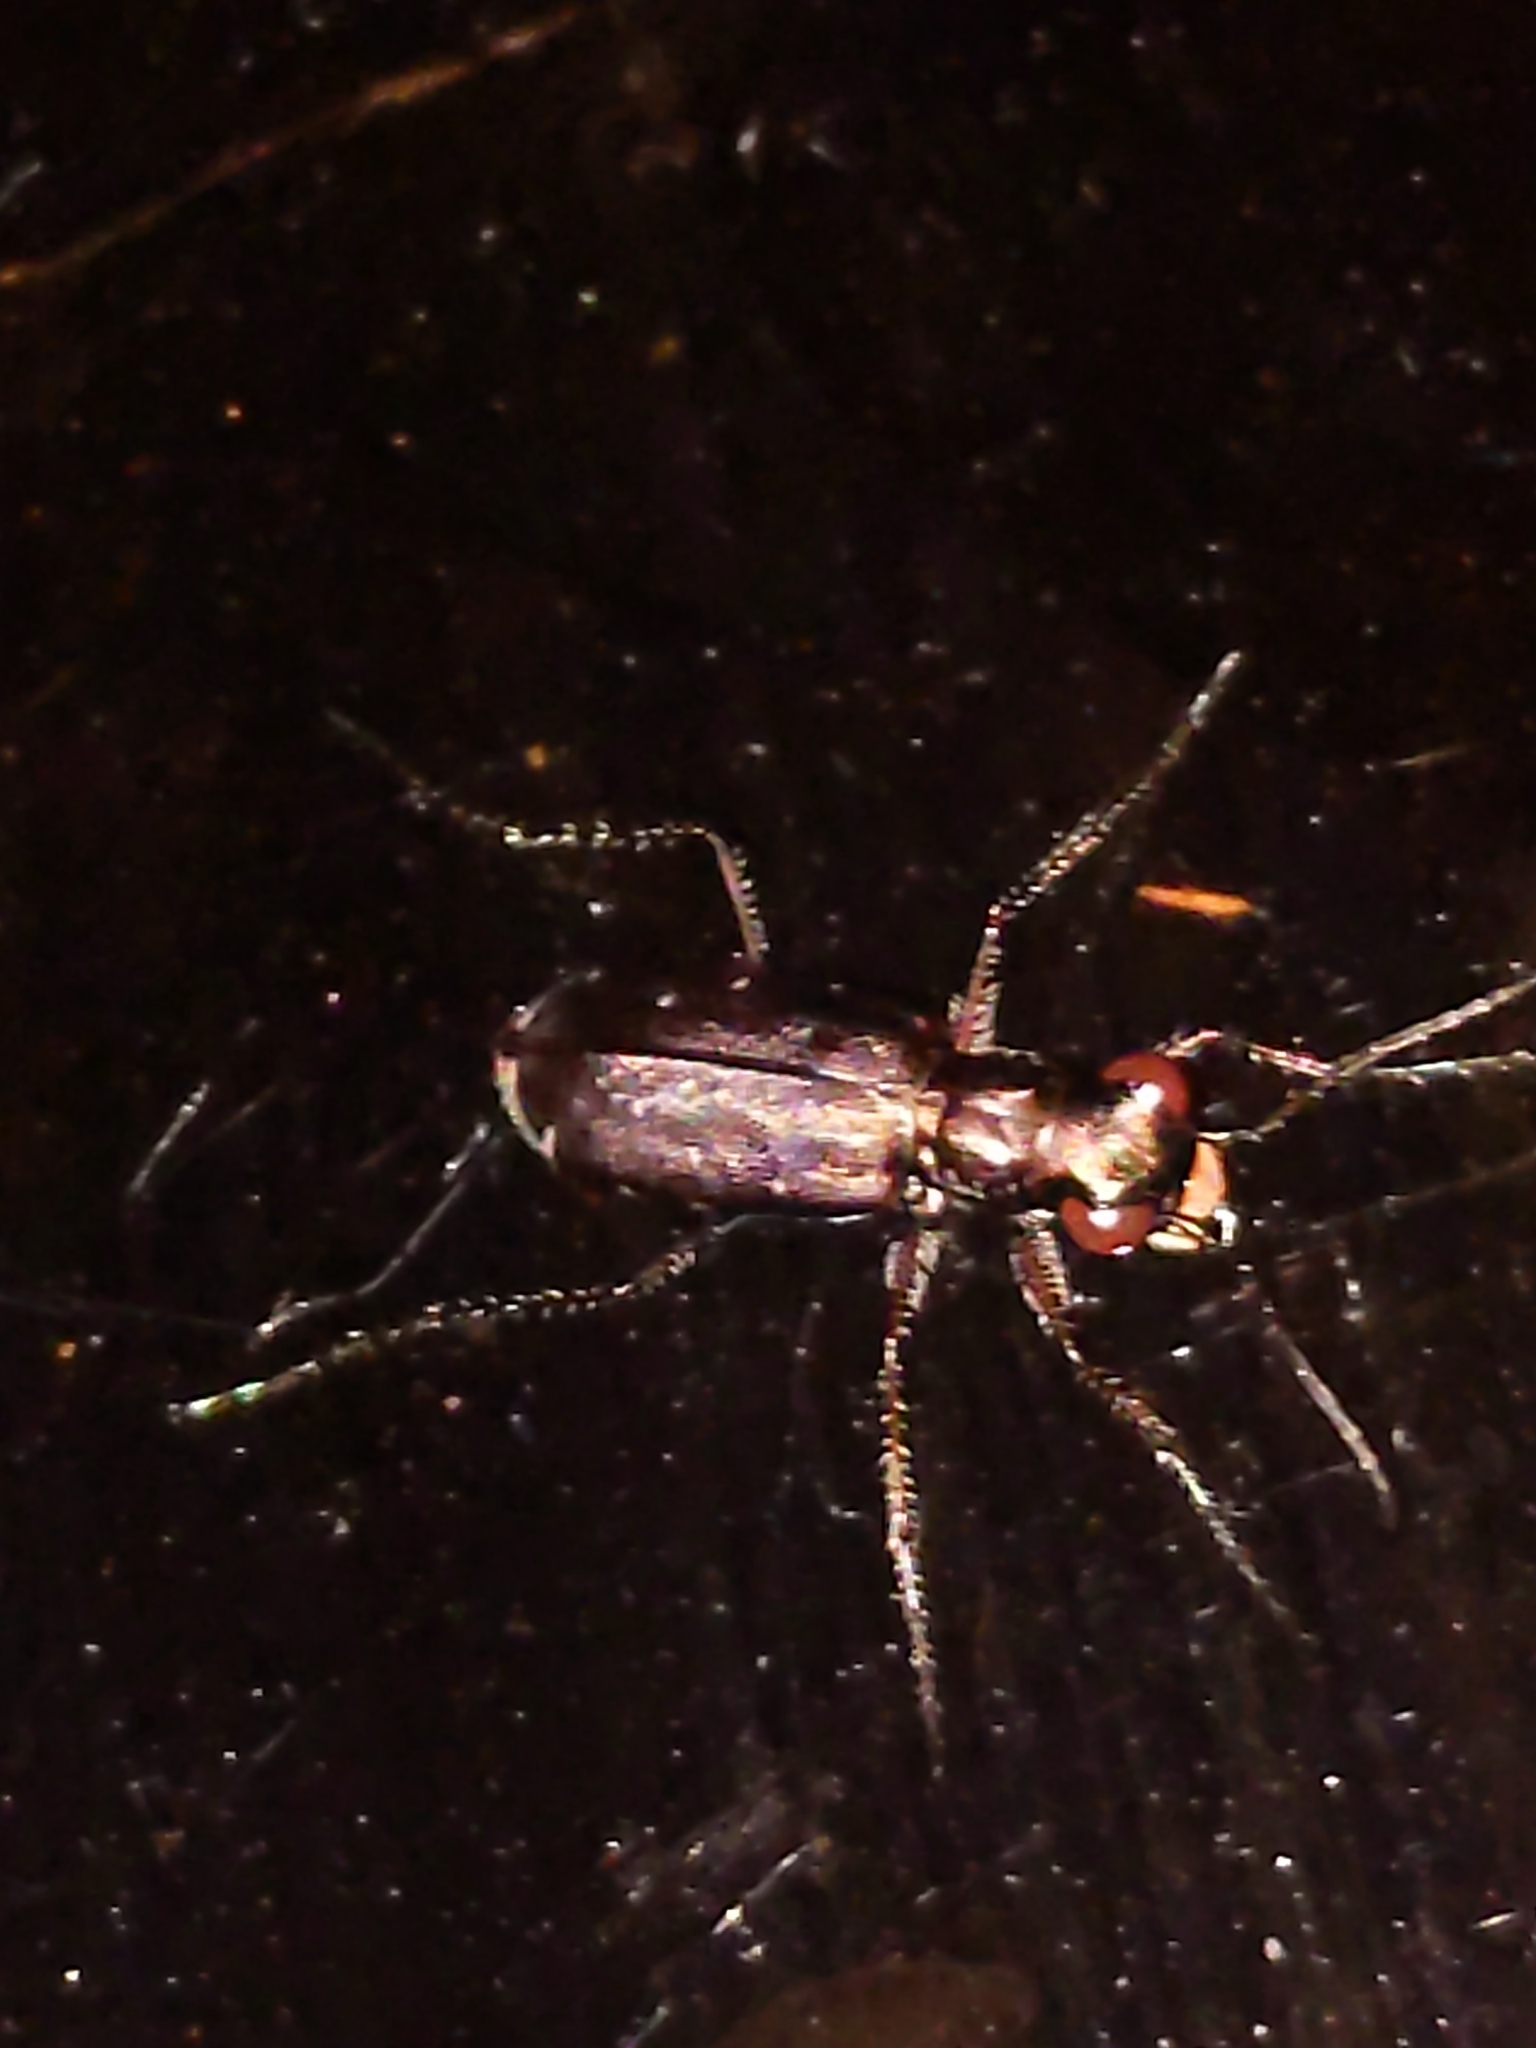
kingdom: Animalia
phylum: Arthropoda
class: Insecta
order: Coleoptera
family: Carabidae
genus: Cicindela
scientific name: Cicindela punctulata
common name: Punctured tiger beetle
